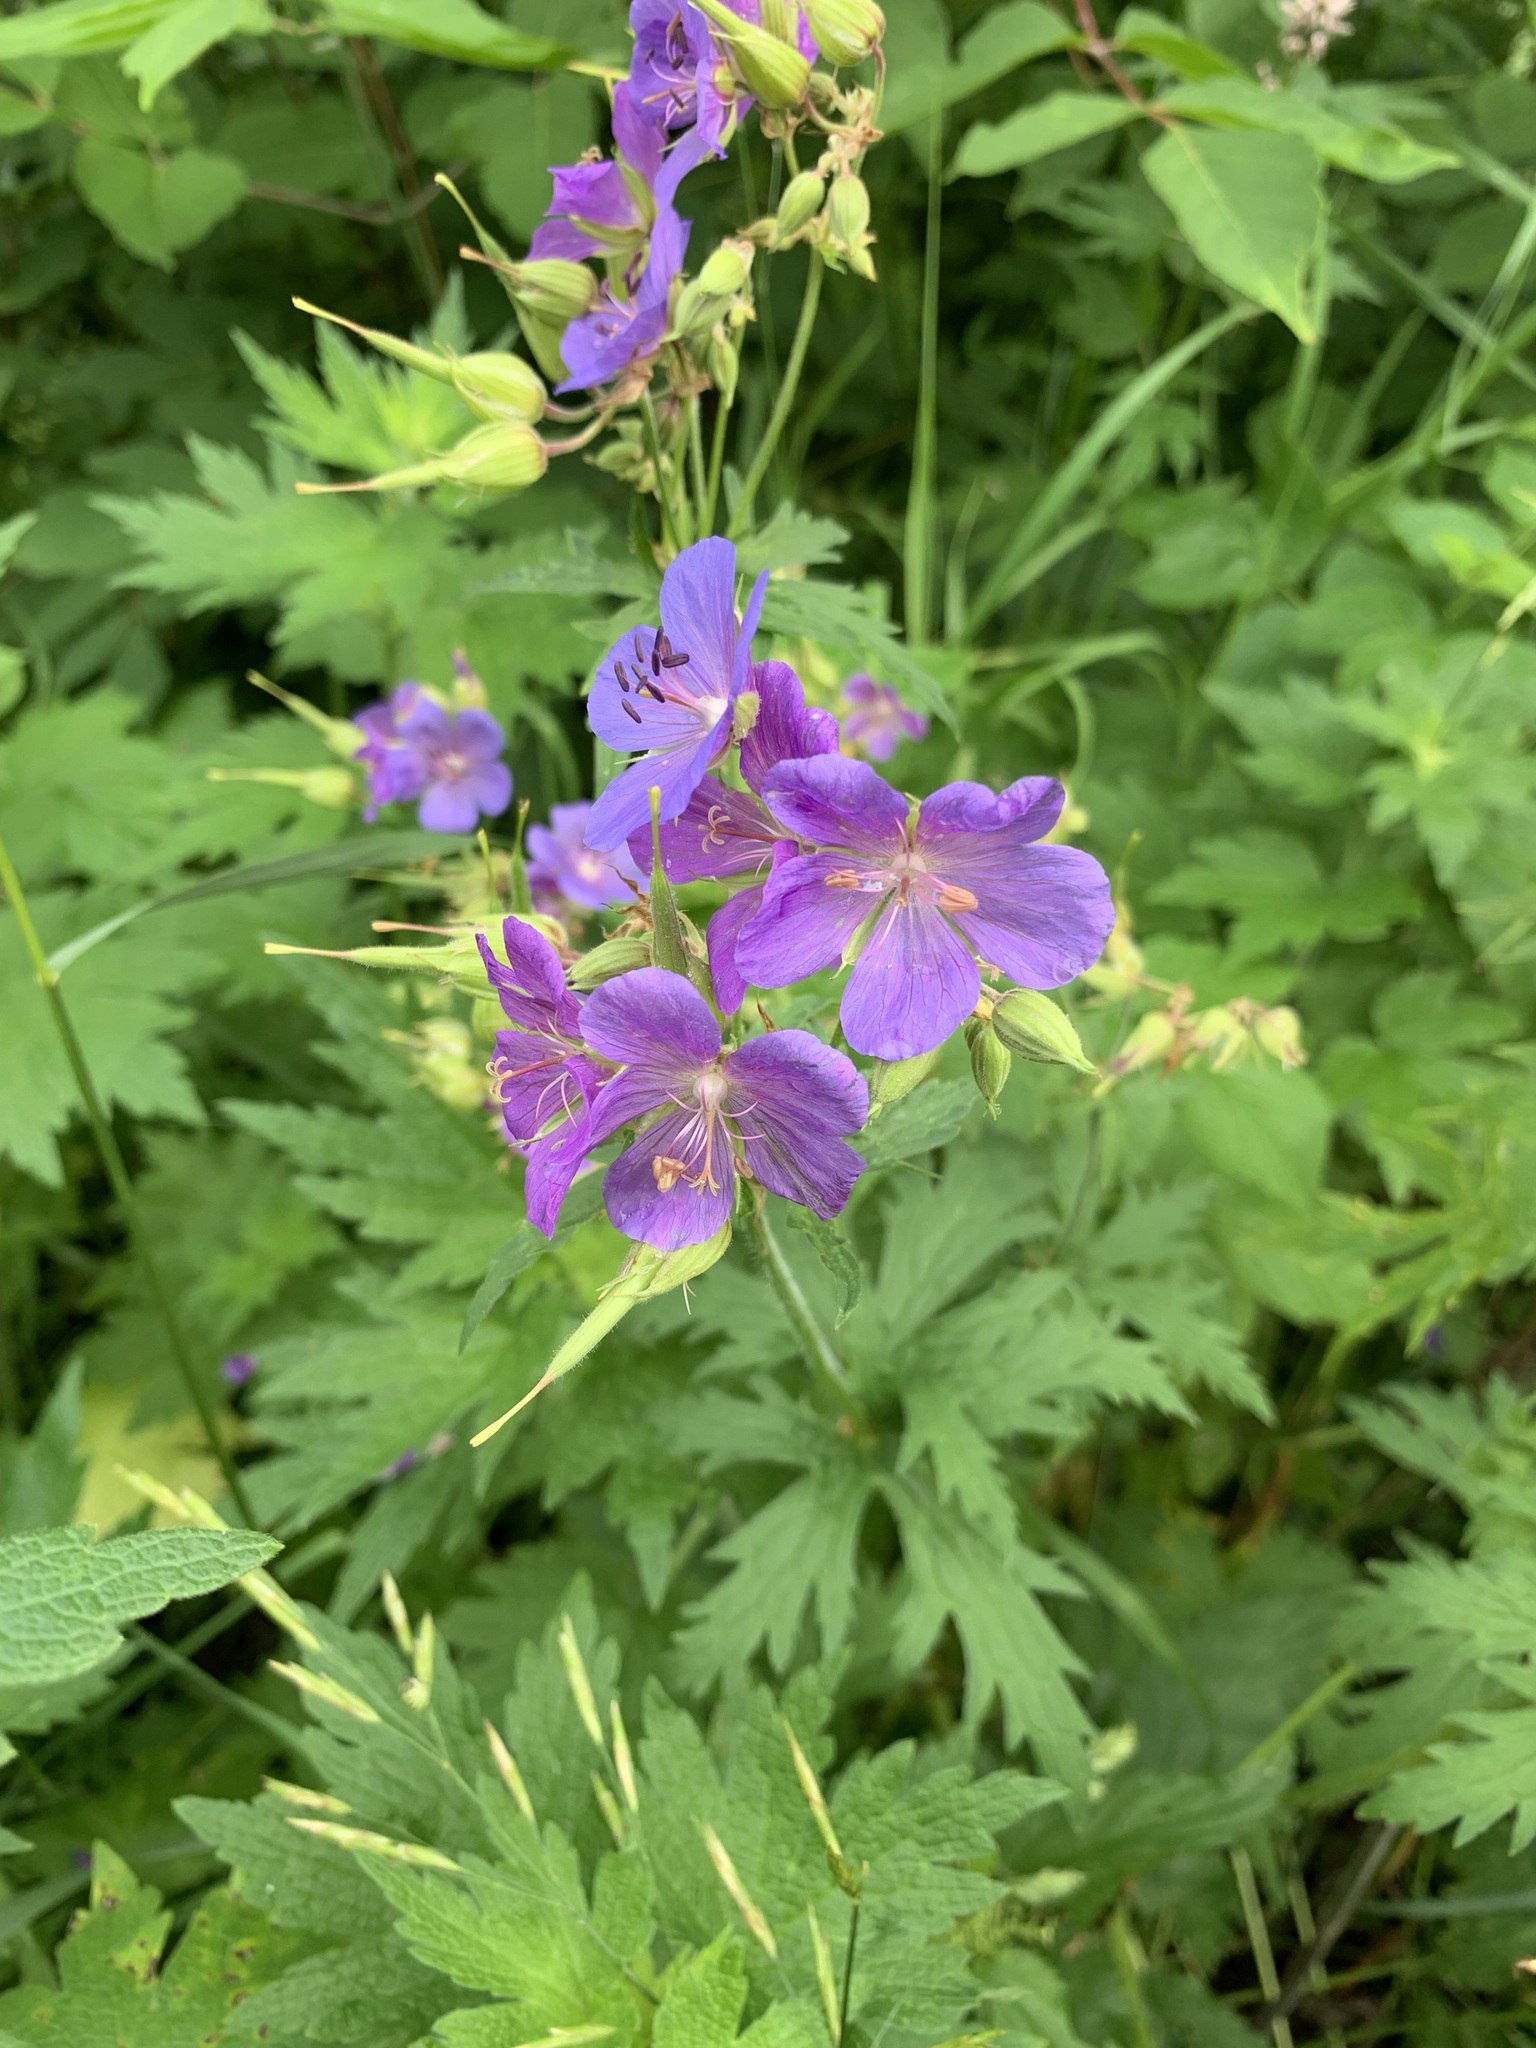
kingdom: Plantae
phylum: Tracheophyta
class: Magnoliopsida
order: Geraniales
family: Geraniaceae
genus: Geranium
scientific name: Geranium pratense
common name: Meadow crane's-bill
